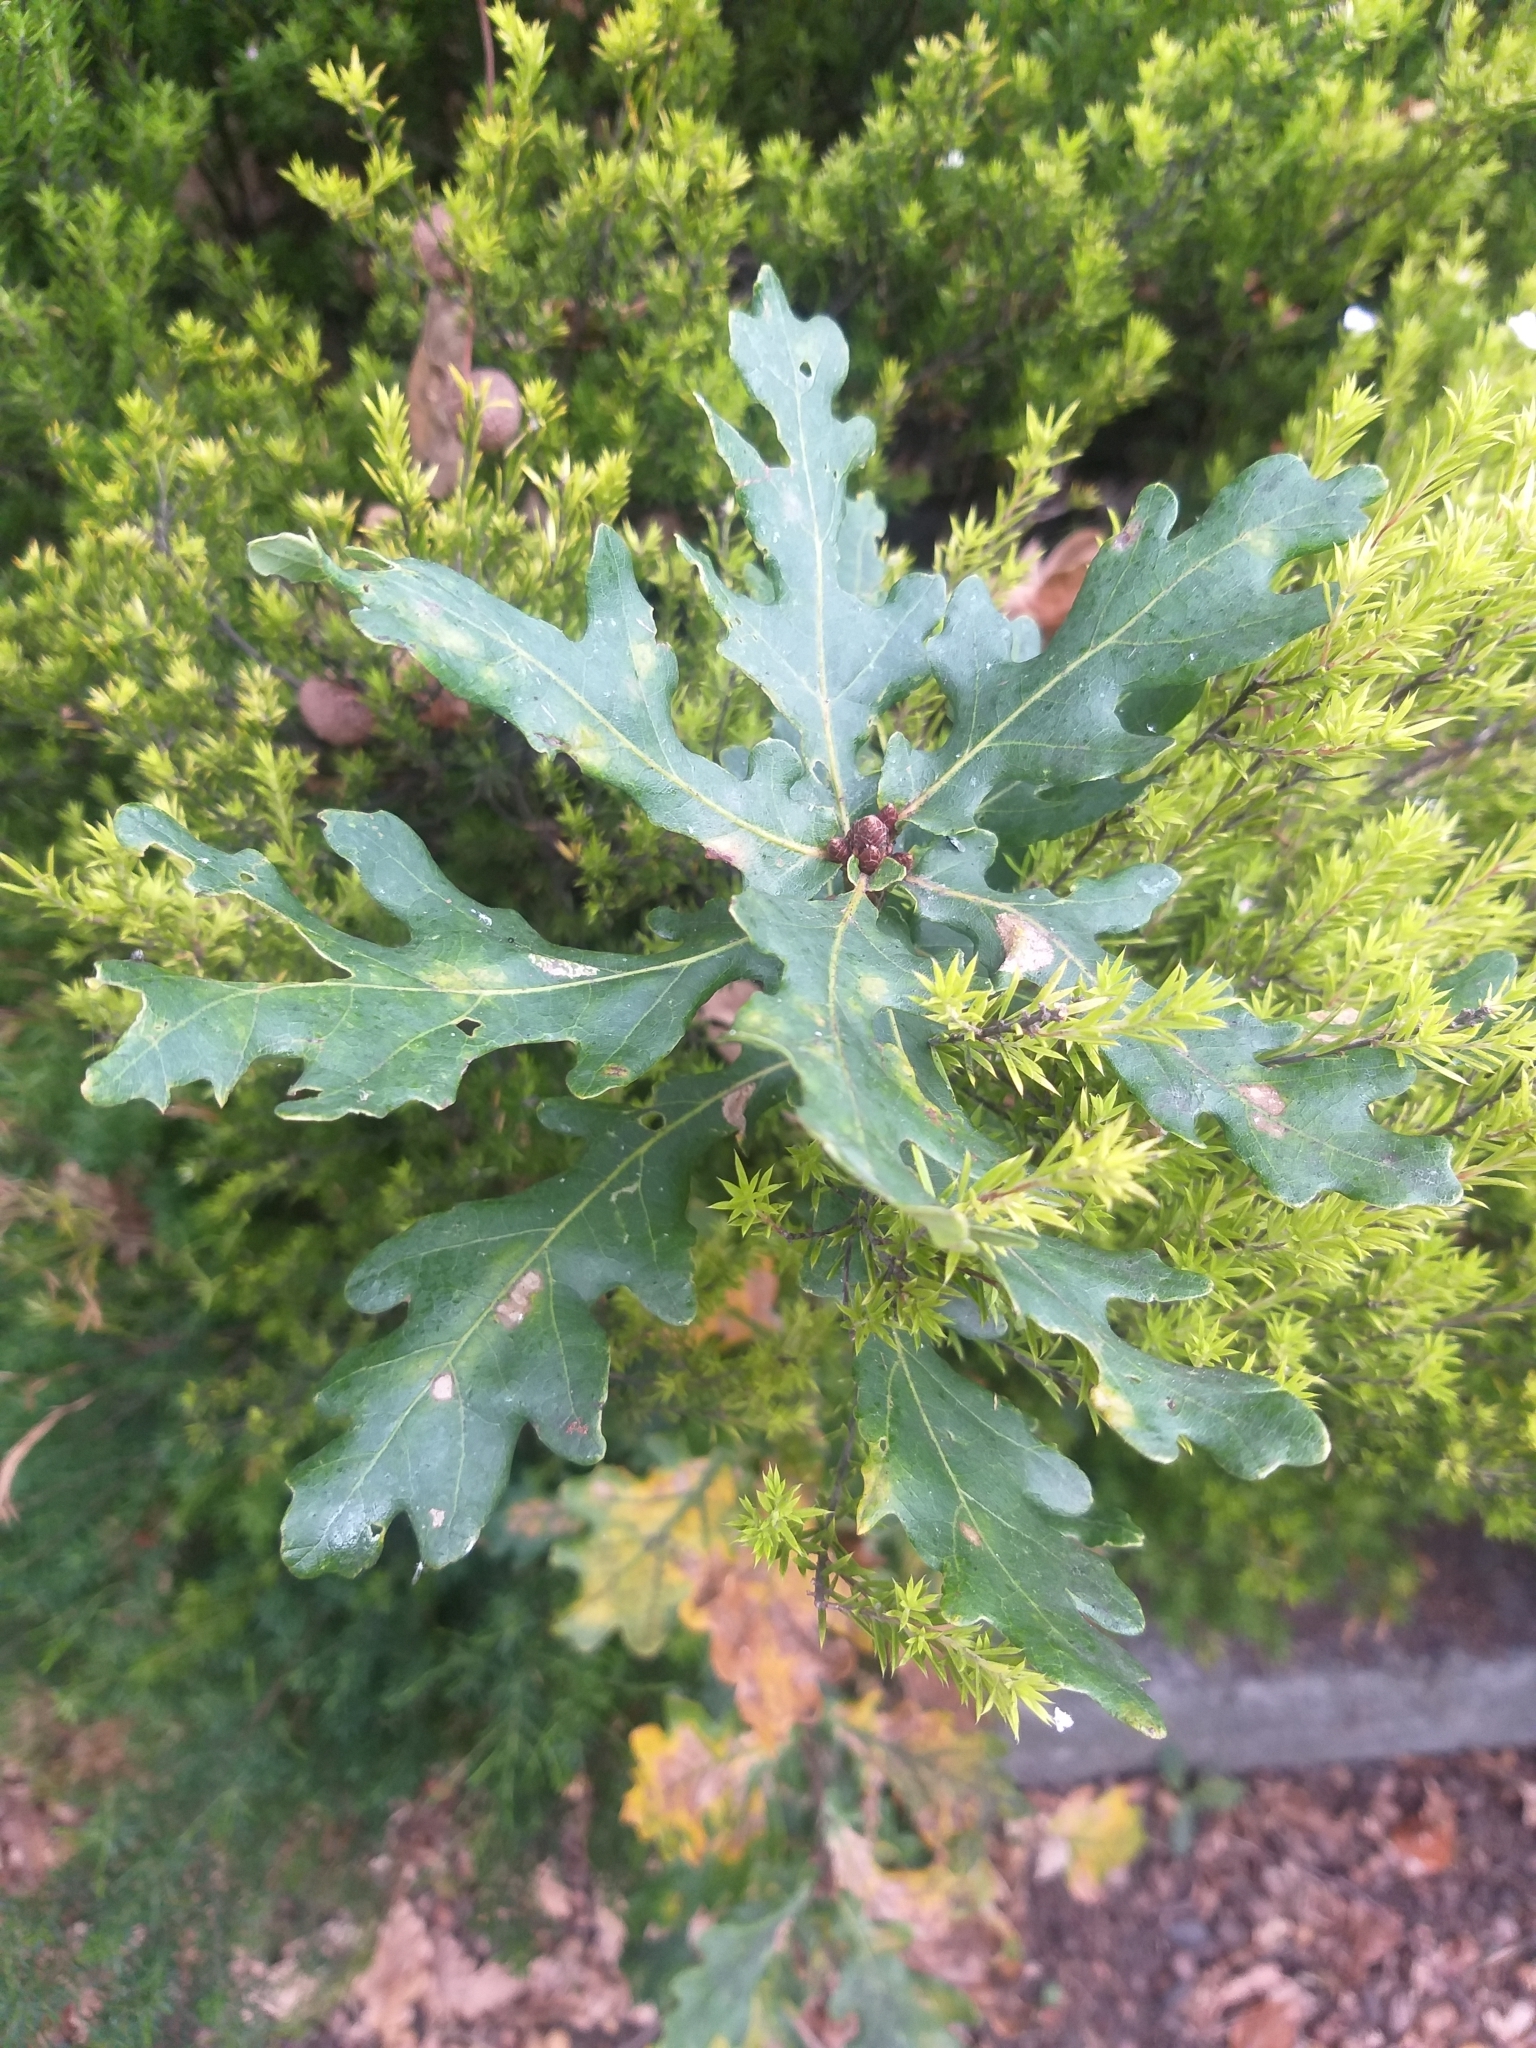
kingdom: Plantae
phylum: Tracheophyta
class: Magnoliopsida
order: Fagales
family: Fagaceae
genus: Quercus
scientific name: Quercus robur
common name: Pedunculate oak
